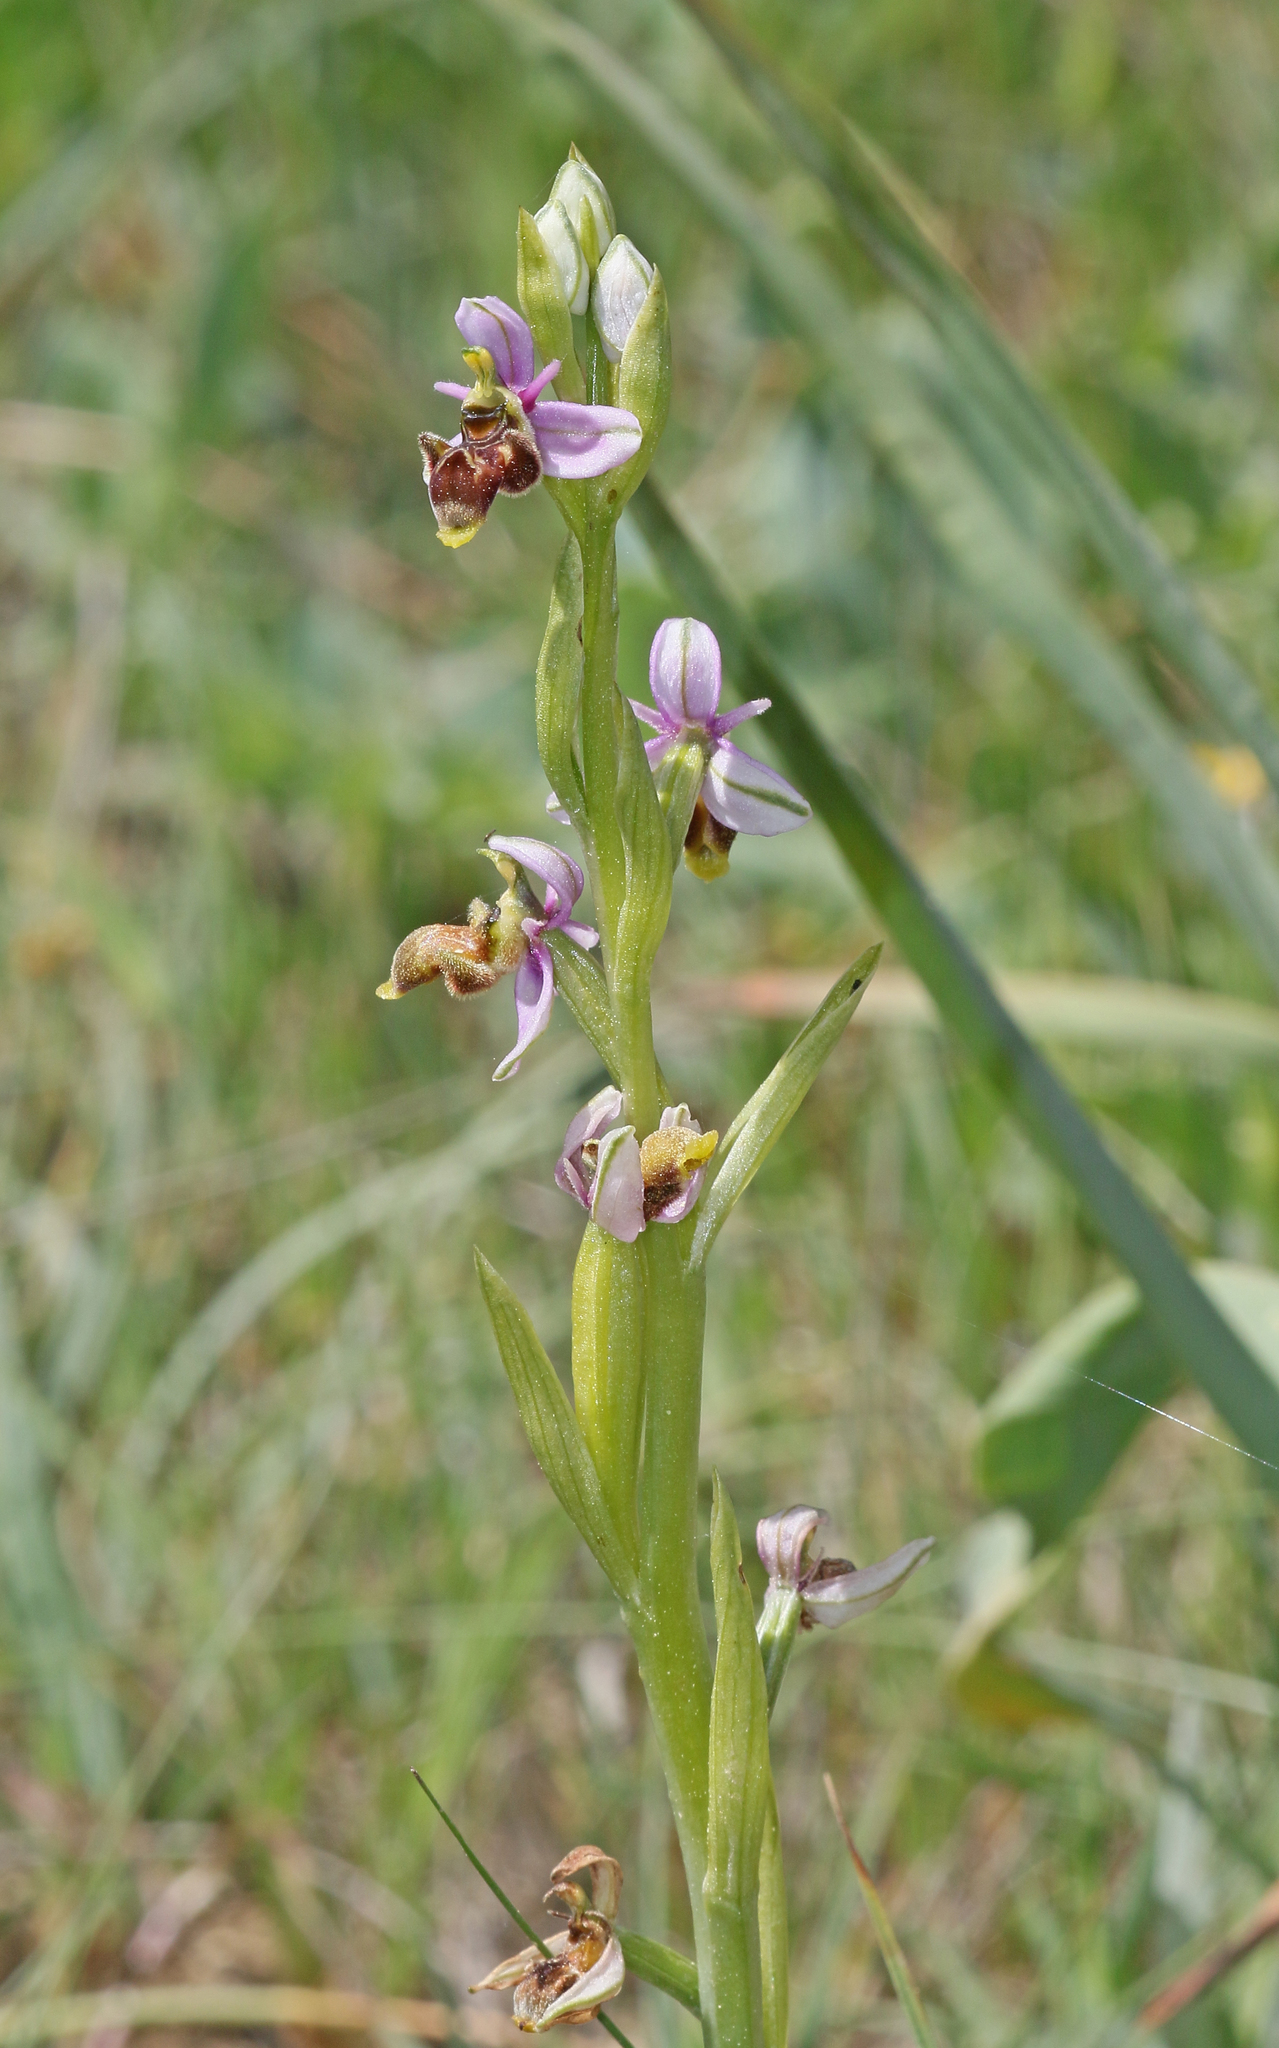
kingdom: Plantae
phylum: Tracheophyta
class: Liliopsida
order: Asparagales
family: Orchidaceae
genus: Ophrys
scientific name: Ophrys scolopax
